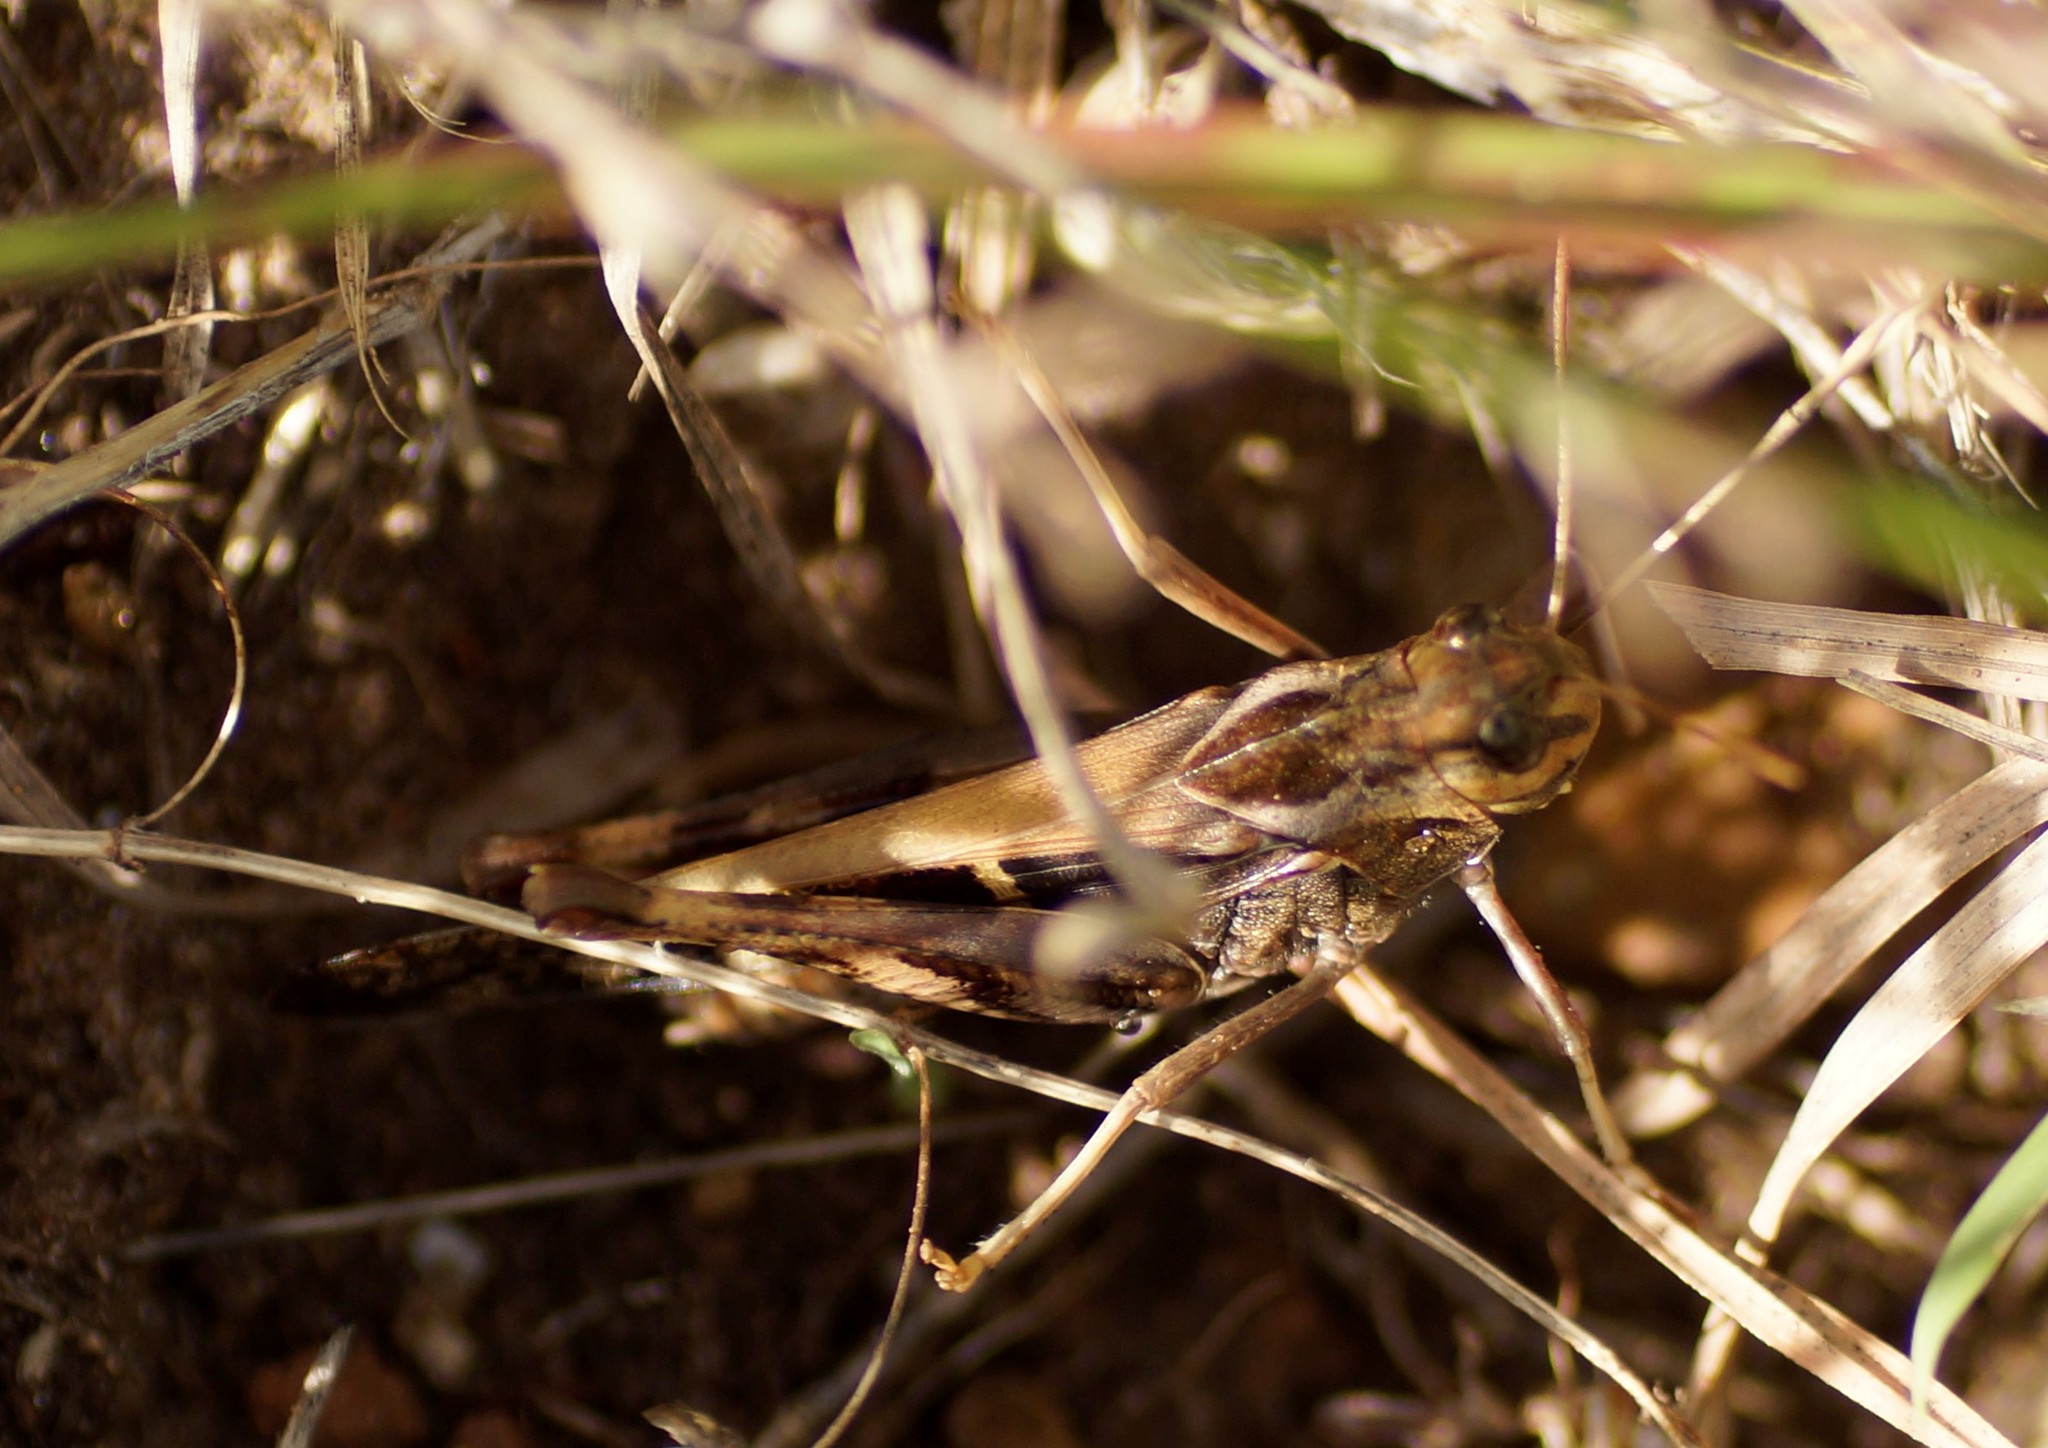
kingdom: Animalia
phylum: Arthropoda
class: Insecta
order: Orthoptera
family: Acrididae
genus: Gastrimargus
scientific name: Gastrimargus musicus
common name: Yellow-winged locust
